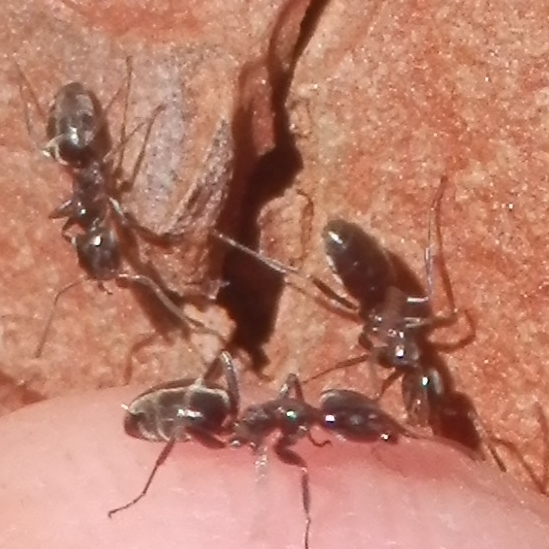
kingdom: Animalia
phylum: Arthropoda
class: Insecta
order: Hymenoptera
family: Formicidae
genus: Linepithema
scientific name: Linepithema humile
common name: Argentine ant
